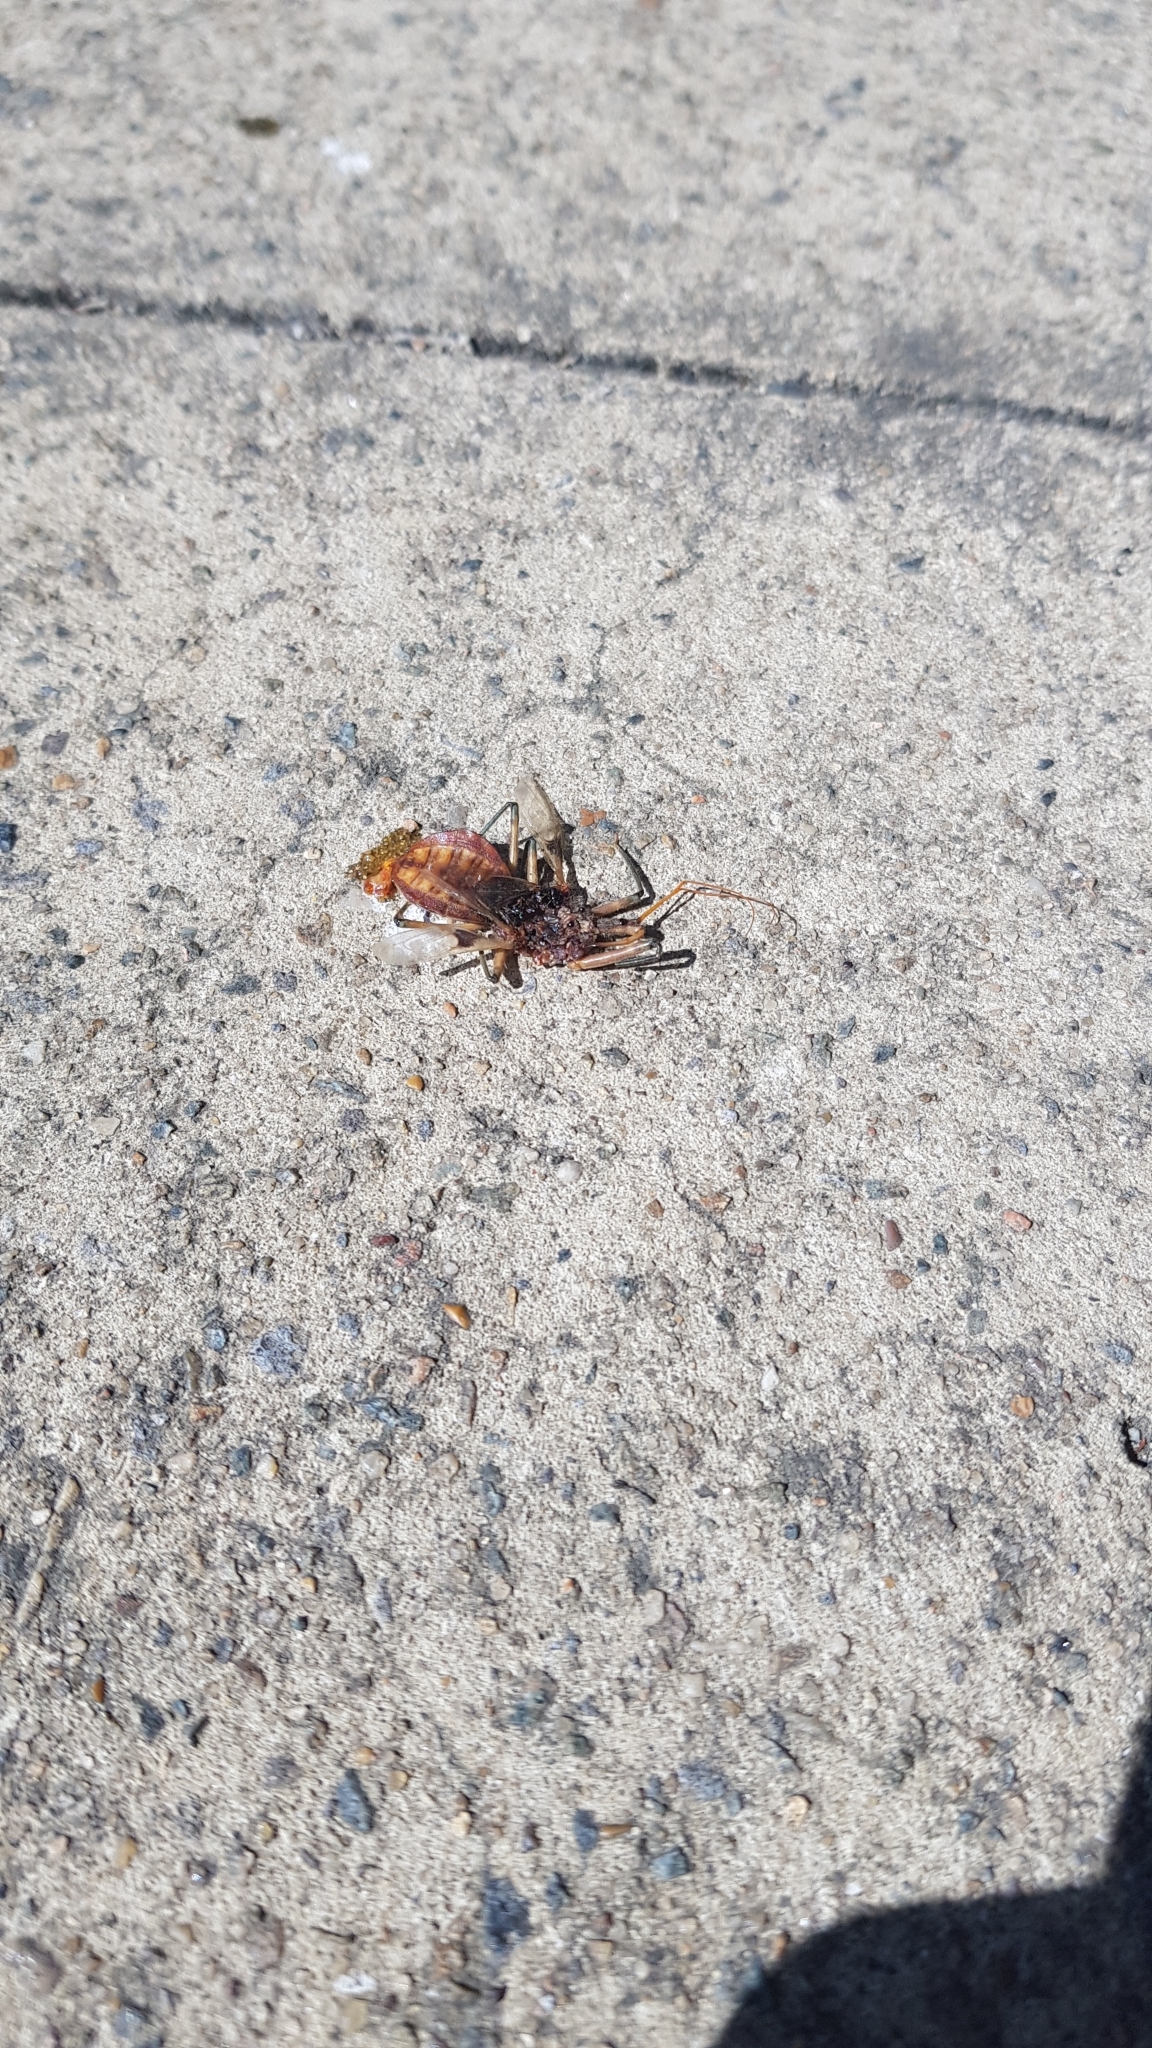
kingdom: Animalia
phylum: Arthropoda
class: Insecta
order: Hemiptera
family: Reduviidae
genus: Pristhesancus
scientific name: Pristhesancus plagipennis
